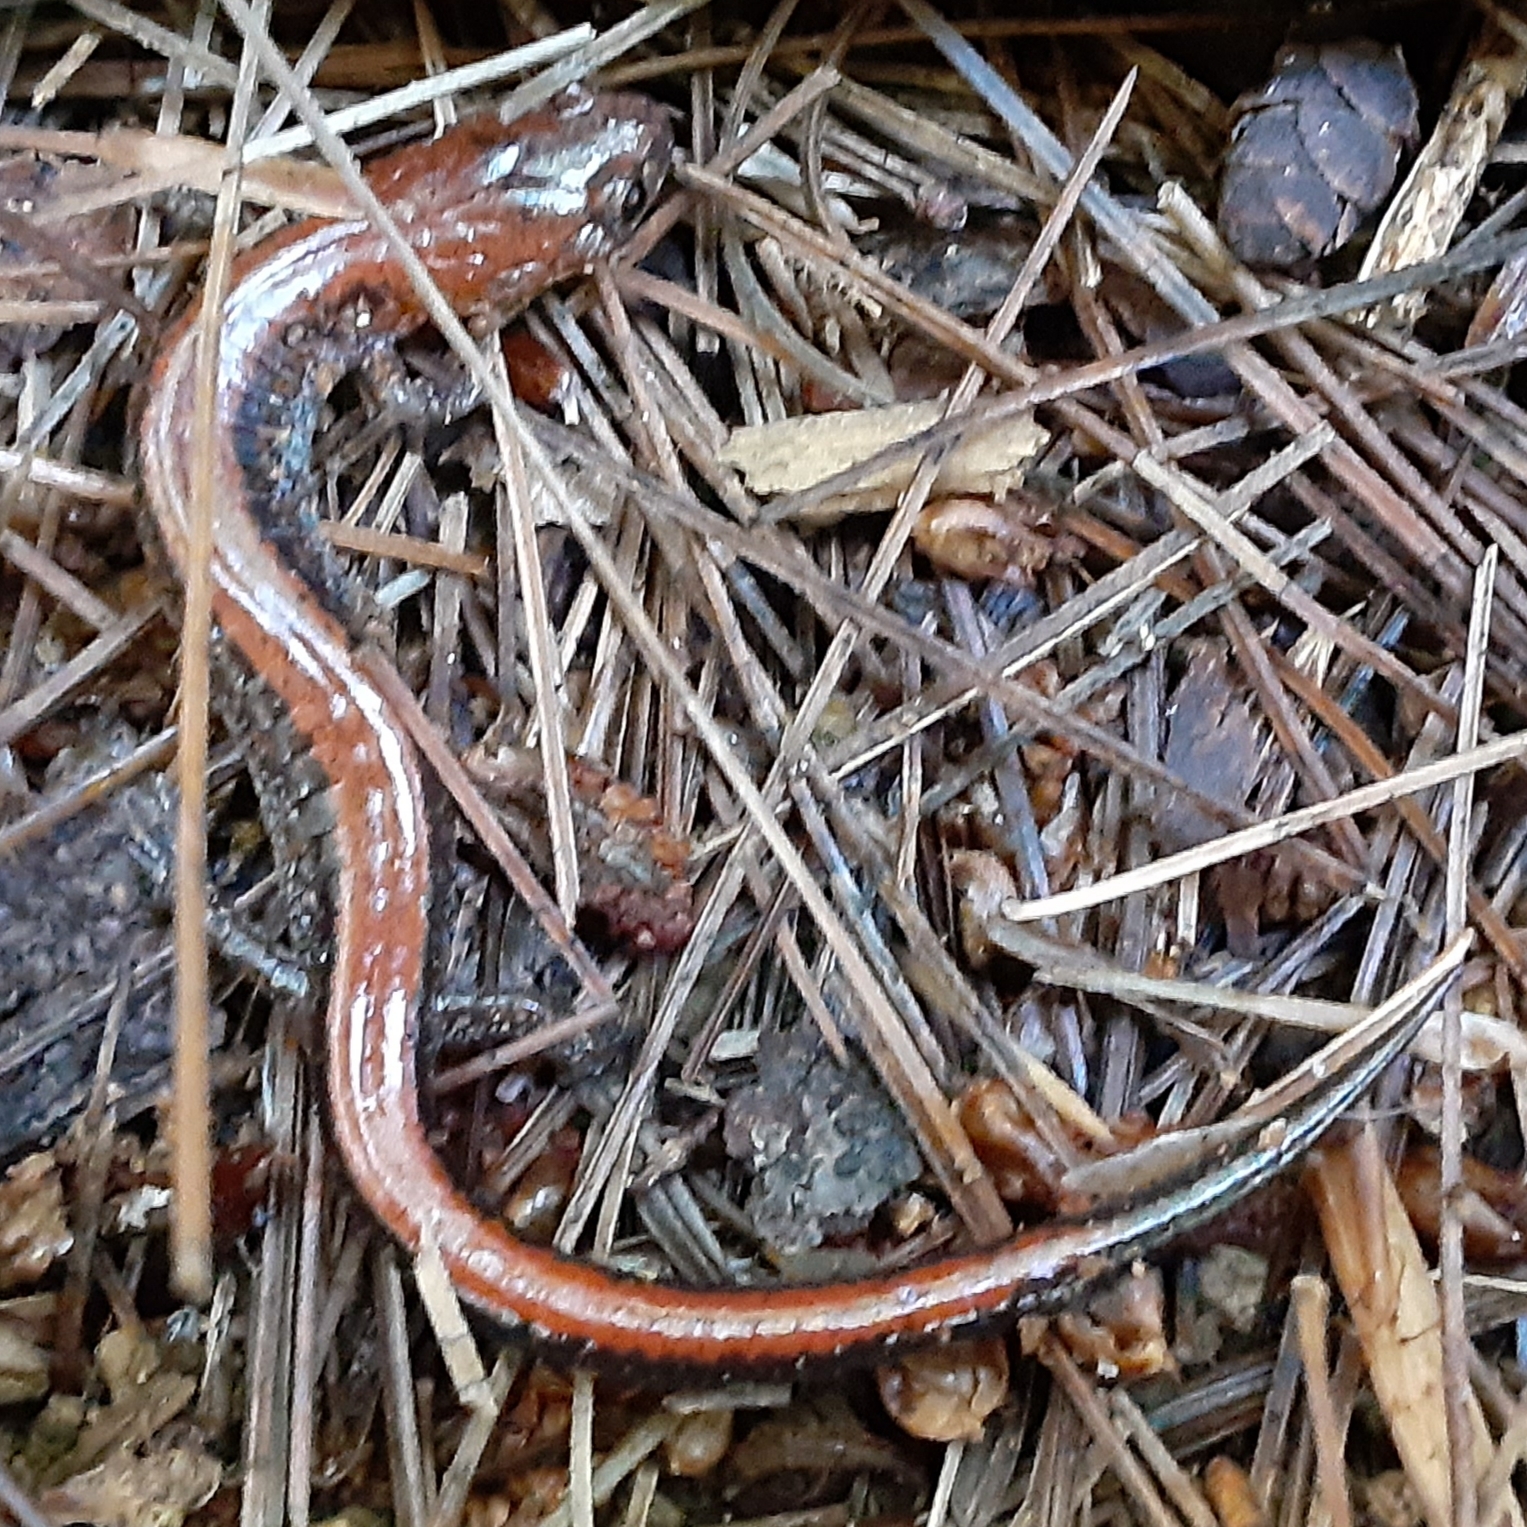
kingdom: Animalia
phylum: Chordata
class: Amphibia
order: Caudata
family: Plethodontidae
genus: Plethodon
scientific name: Plethodon cinereus
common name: Redback salamander
